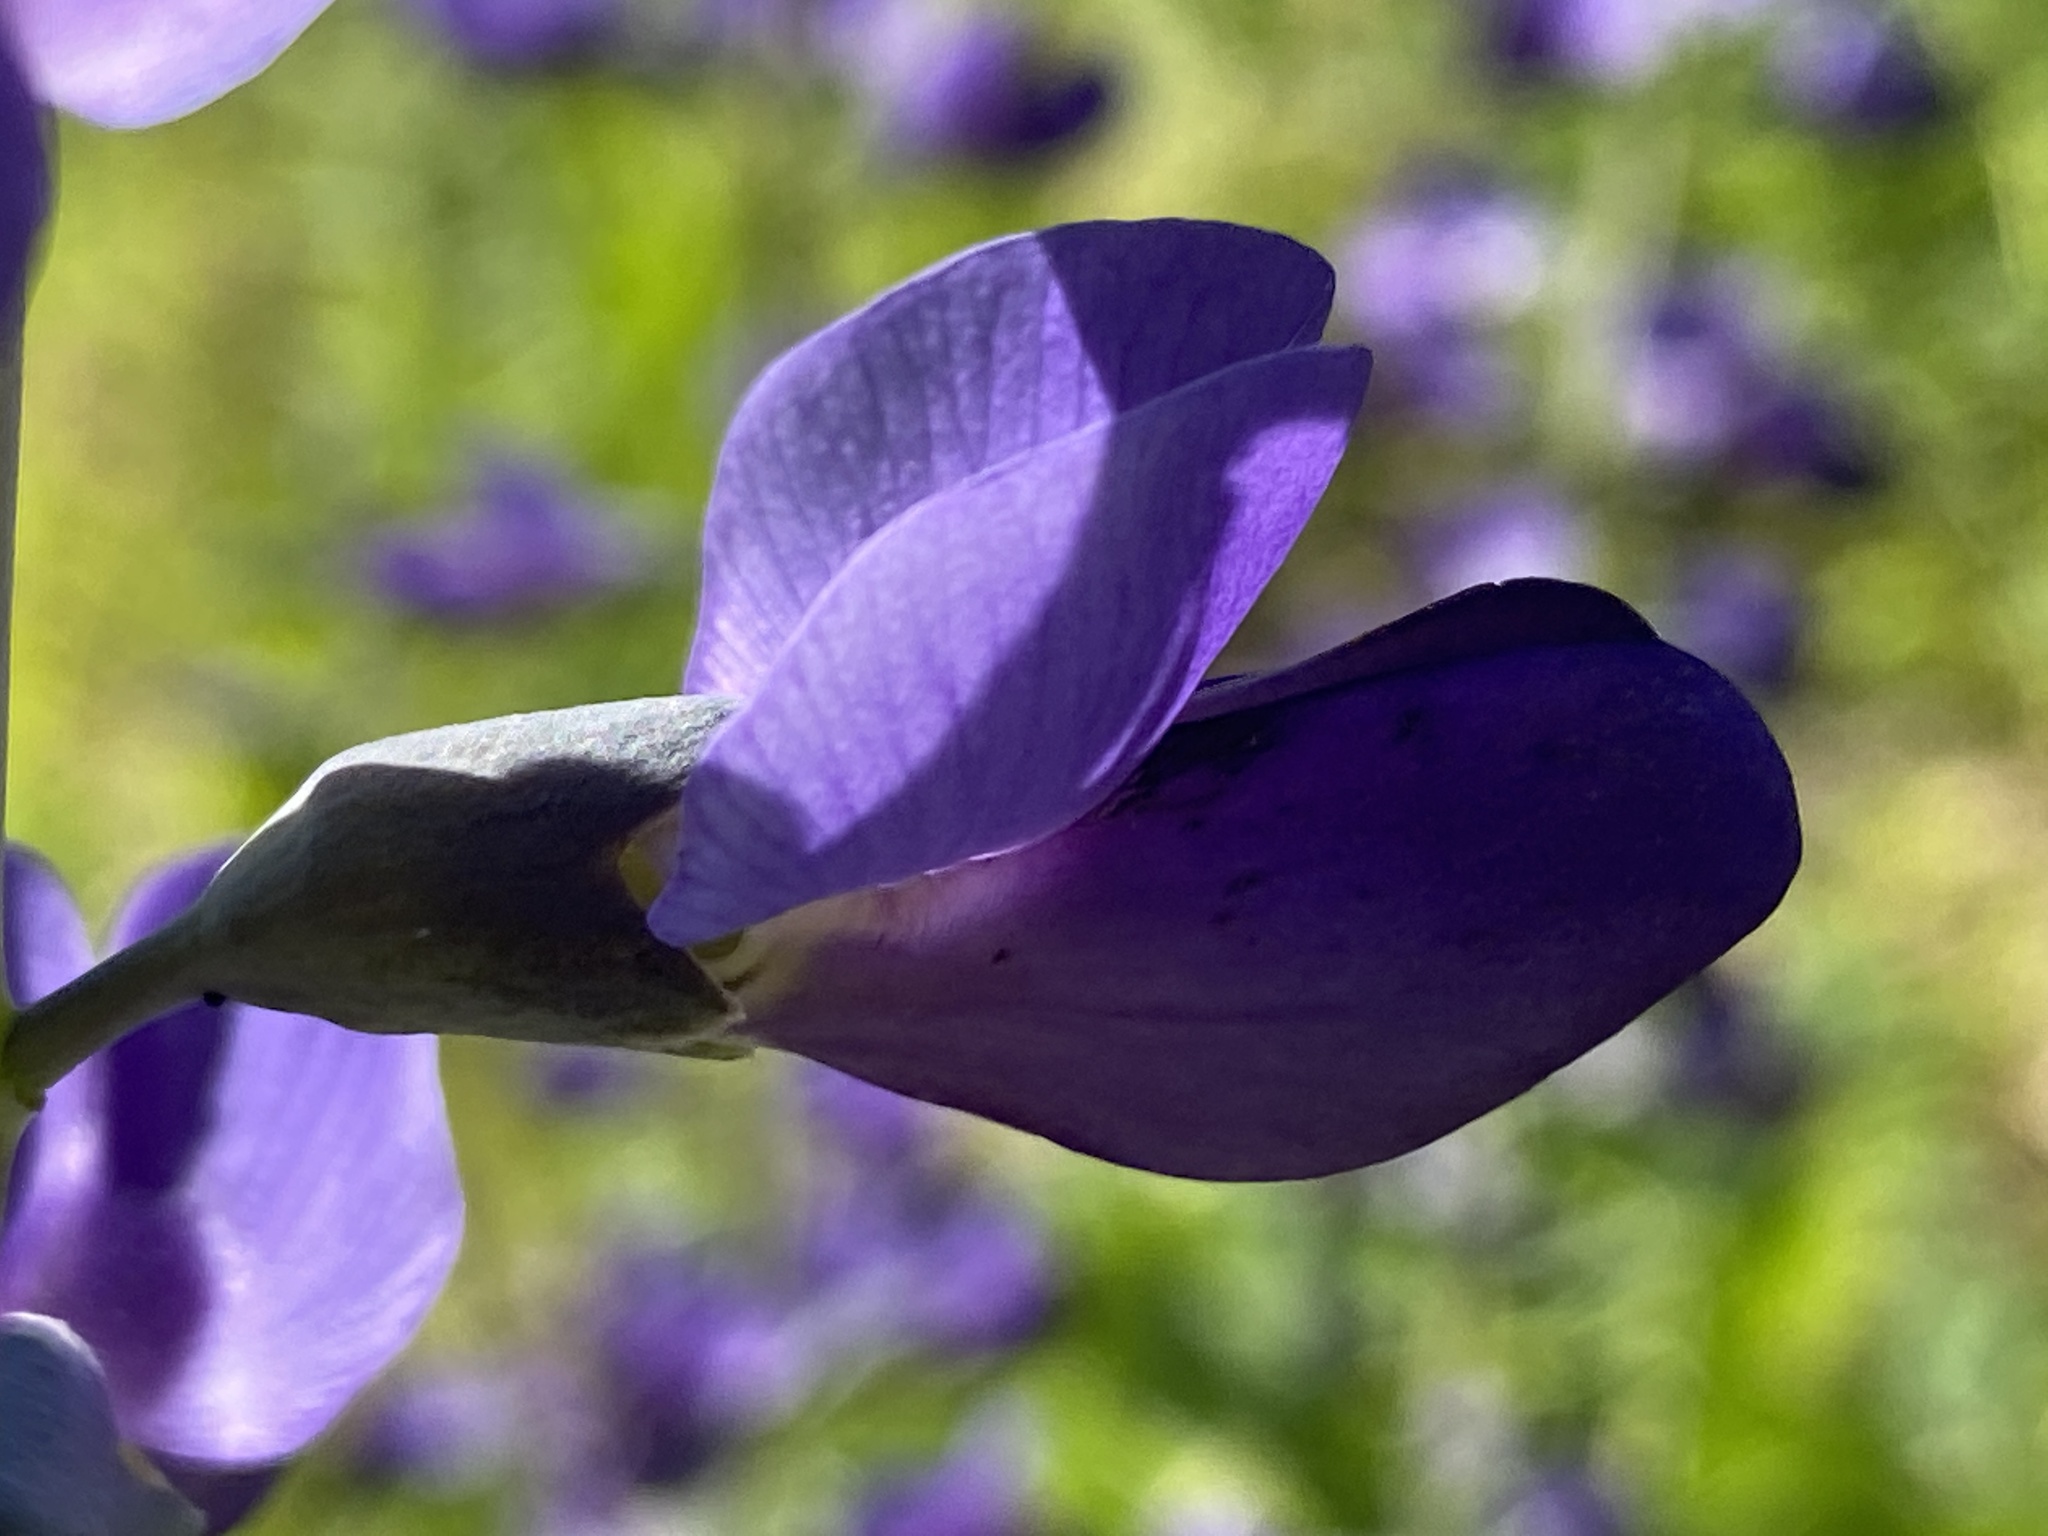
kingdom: Plantae
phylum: Tracheophyta
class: Magnoliopsida
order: Fabales
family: Fabaceae
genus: Baptisia
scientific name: Baptisia aberrans
